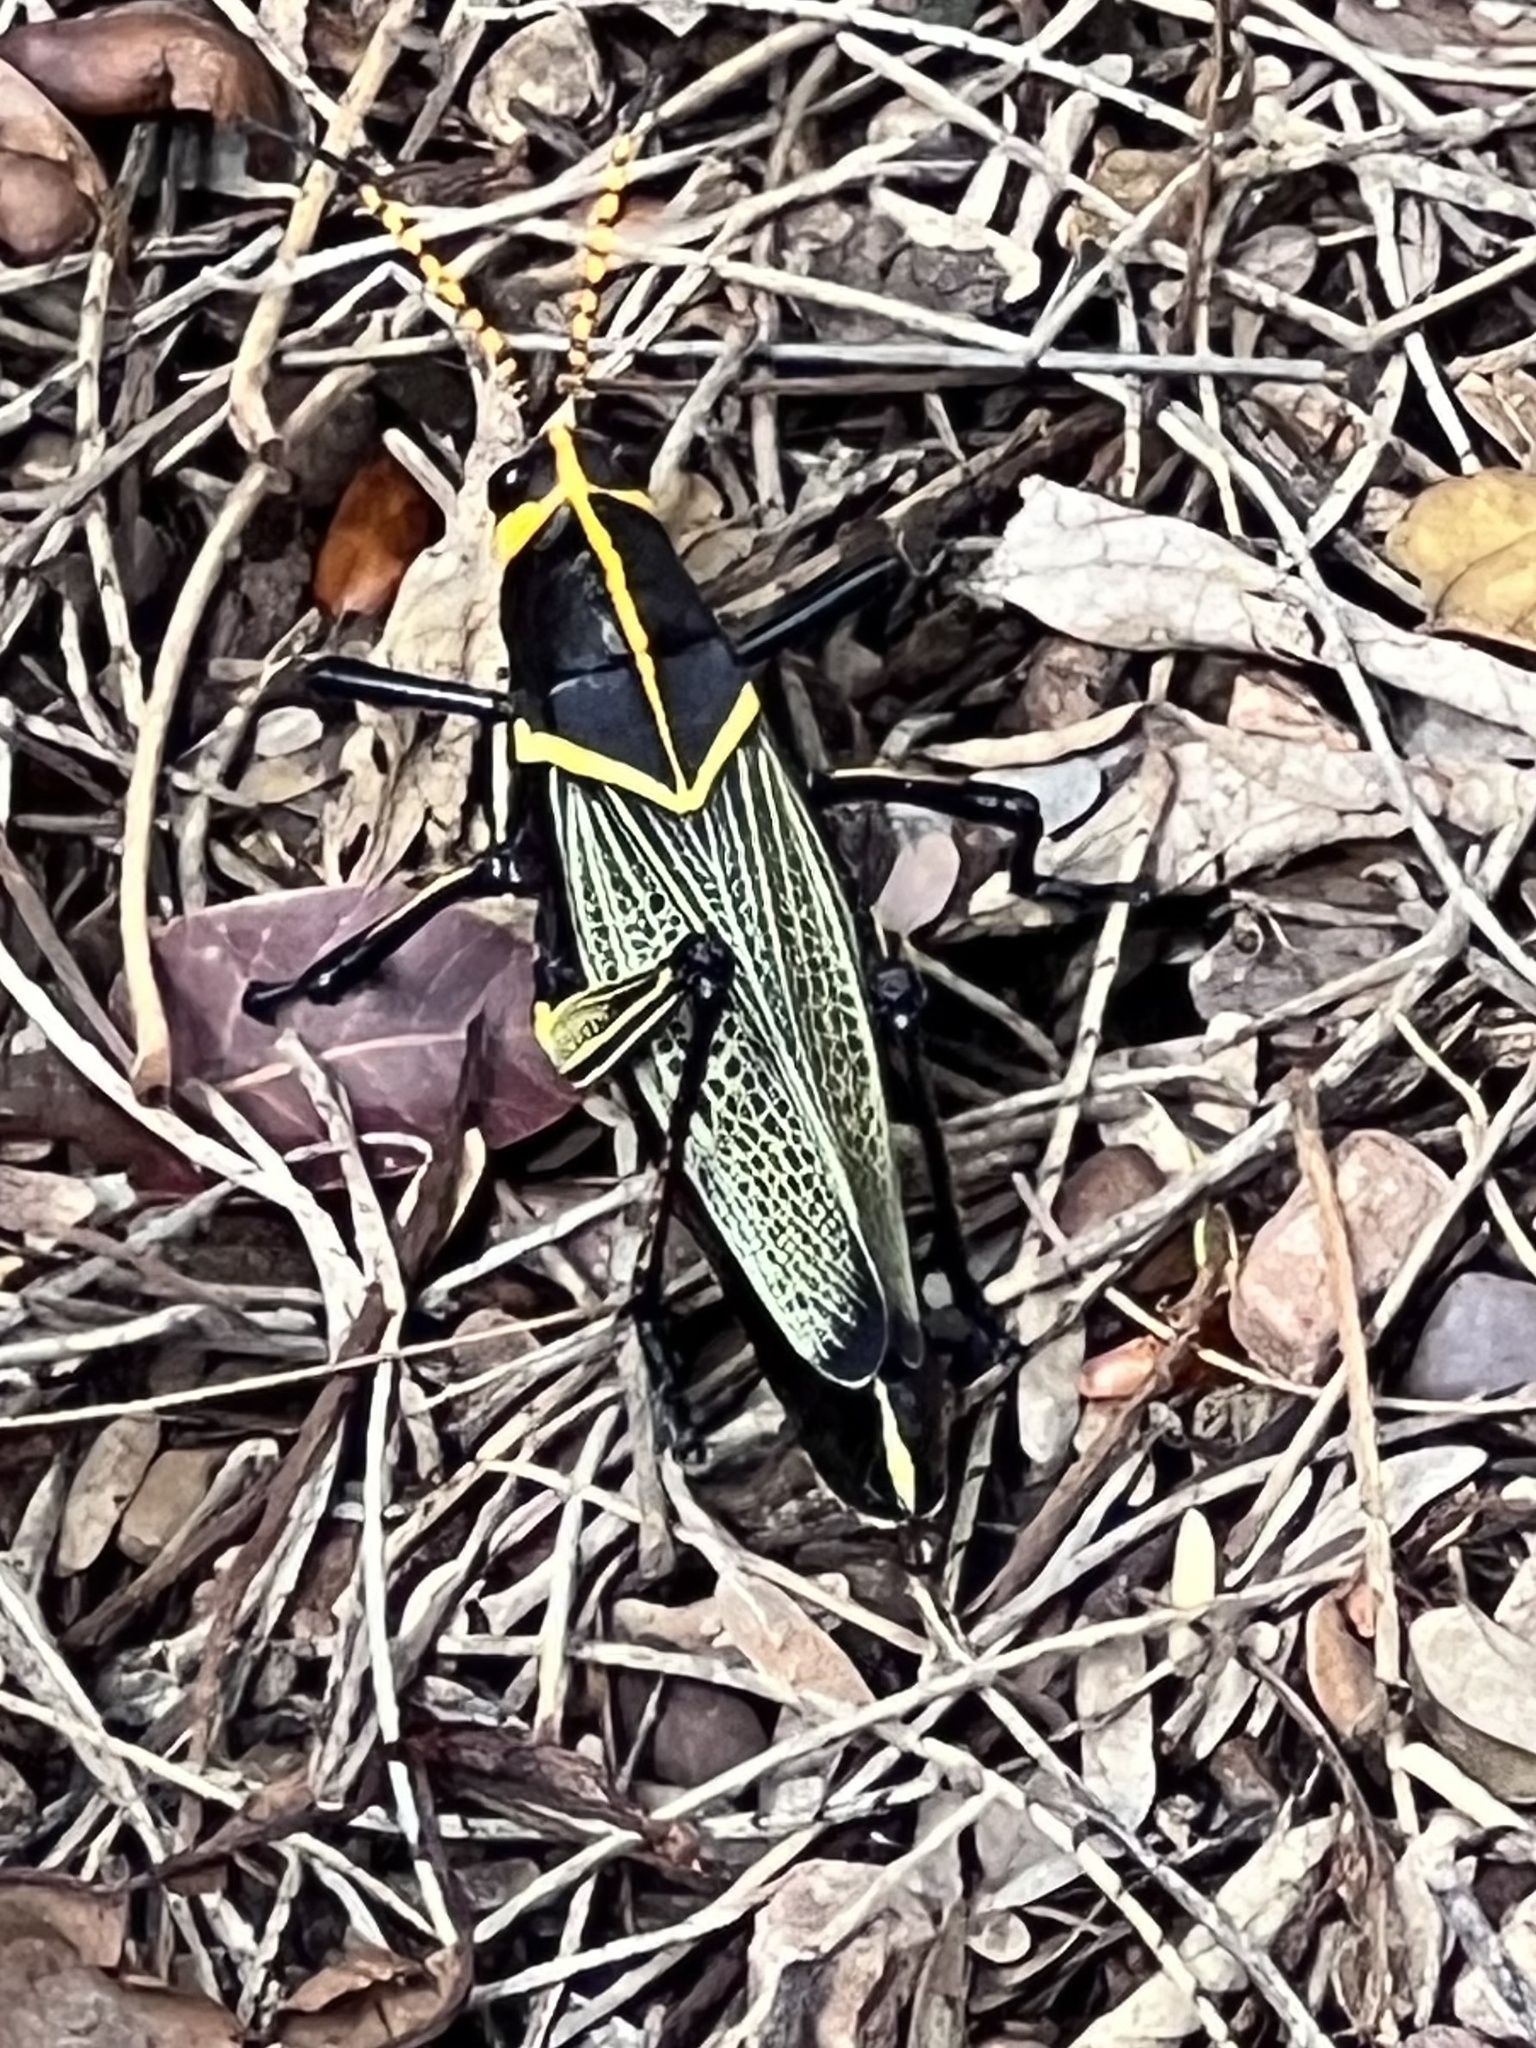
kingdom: Animalia
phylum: Arthropoda
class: Insecta
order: Orthoptera
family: Romaleidae
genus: Romalea
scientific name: Romalea
